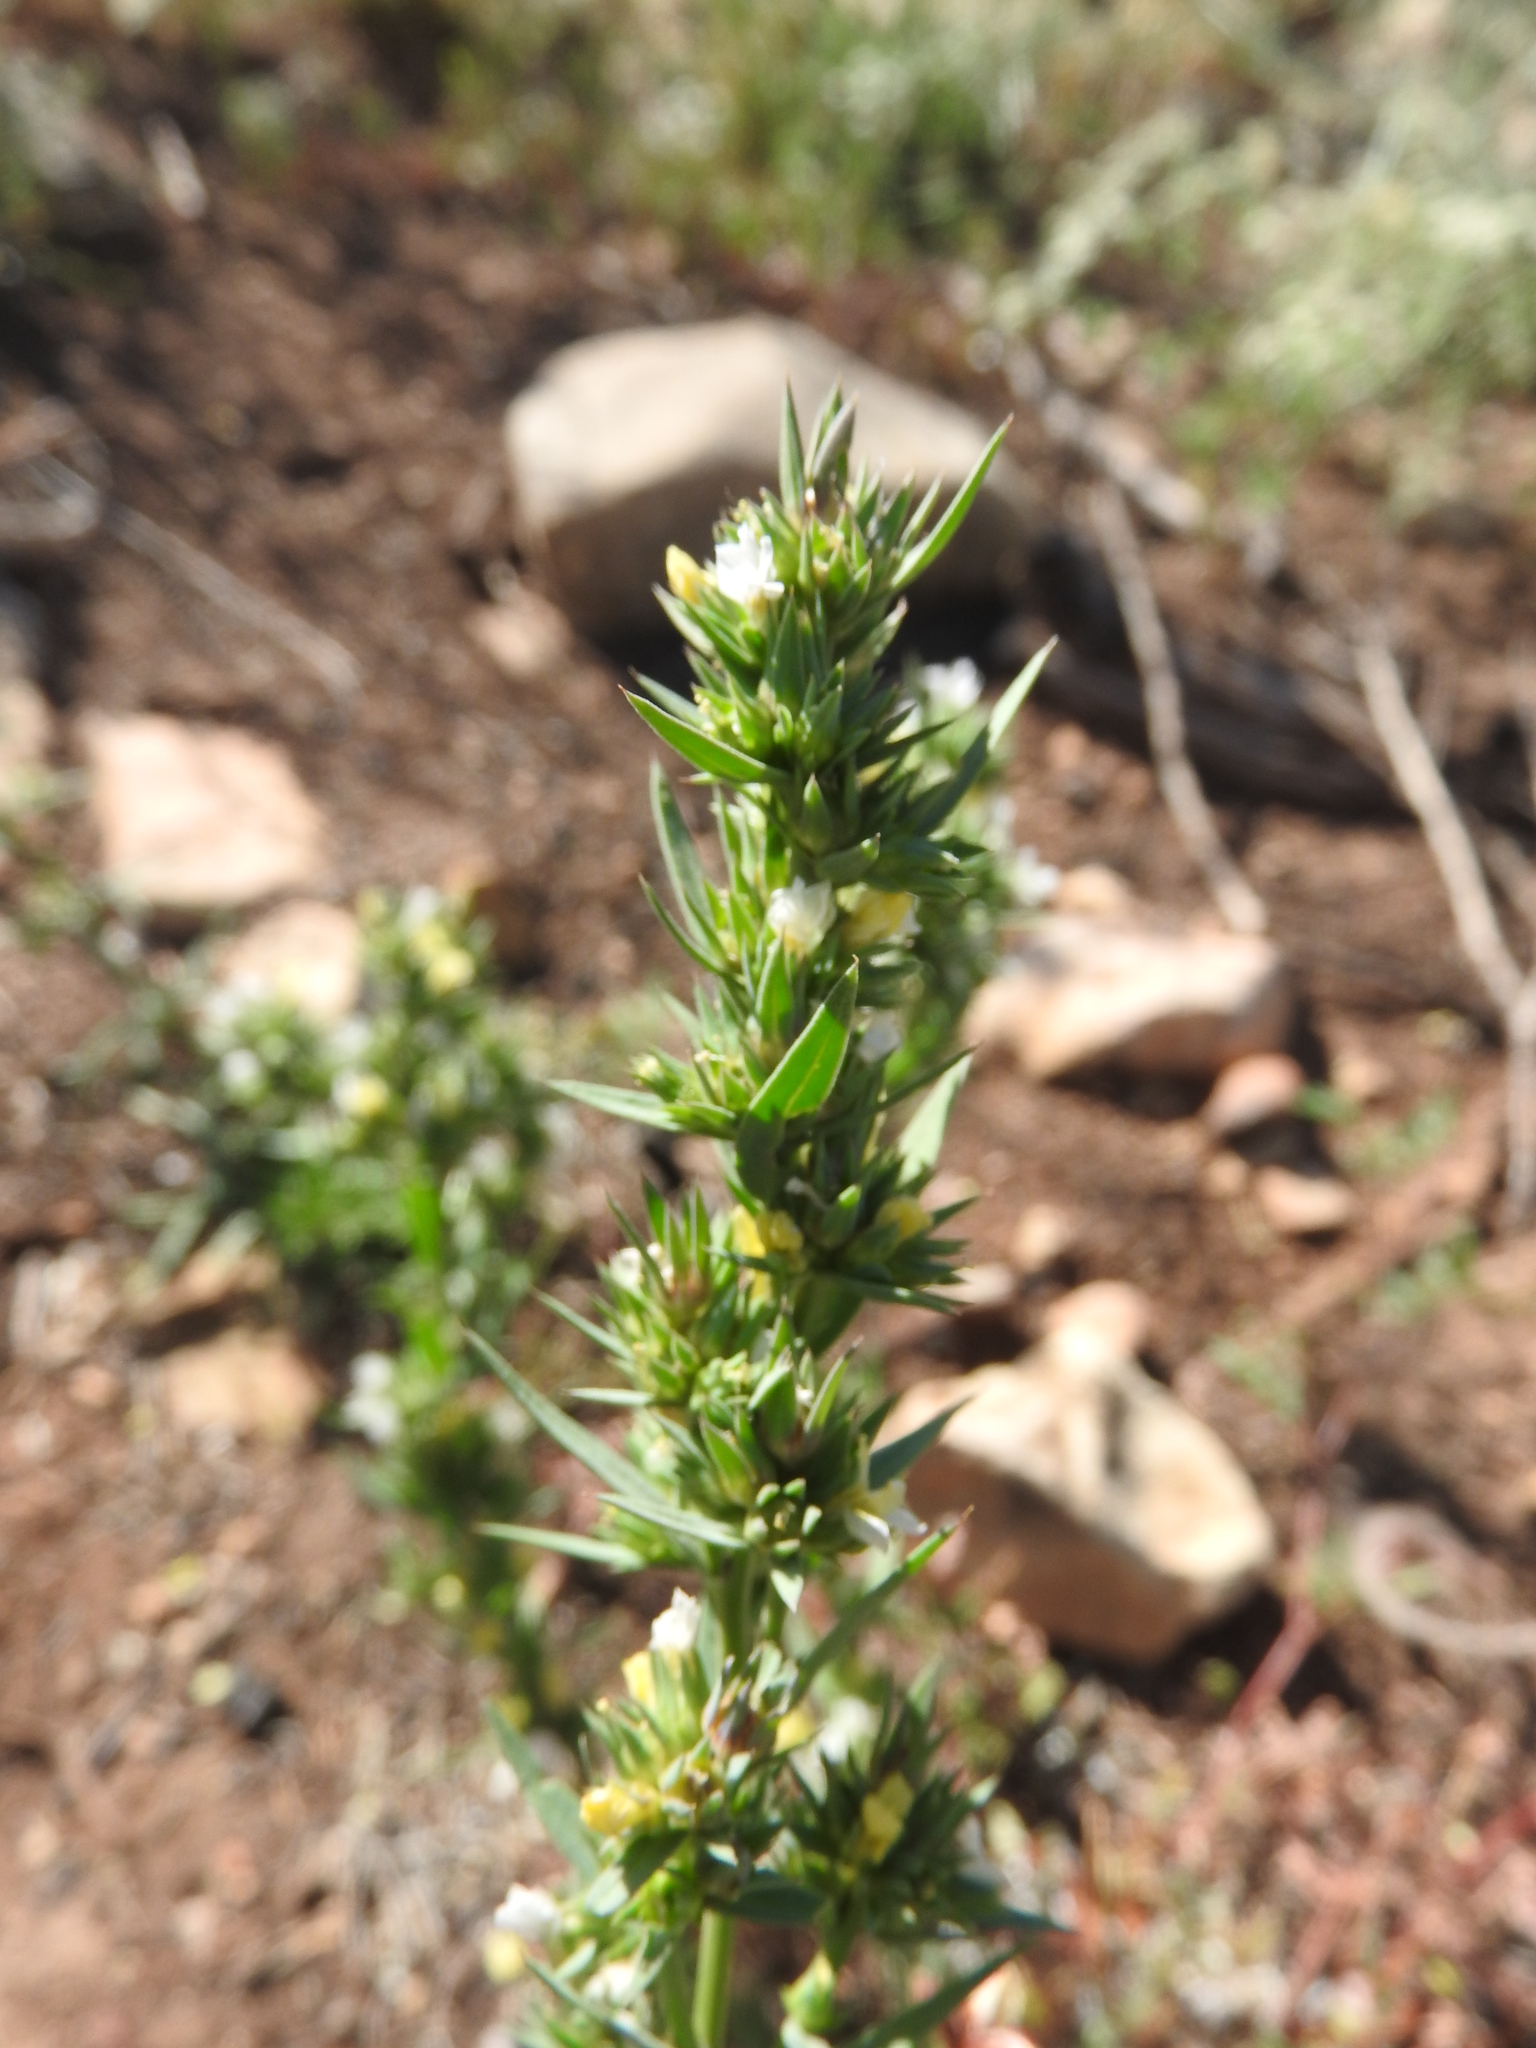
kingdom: Plantae
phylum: Tracheophyta
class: Magnoliopsida
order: Malpighiales
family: Linaceae
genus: Linum
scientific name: Linum strictum
